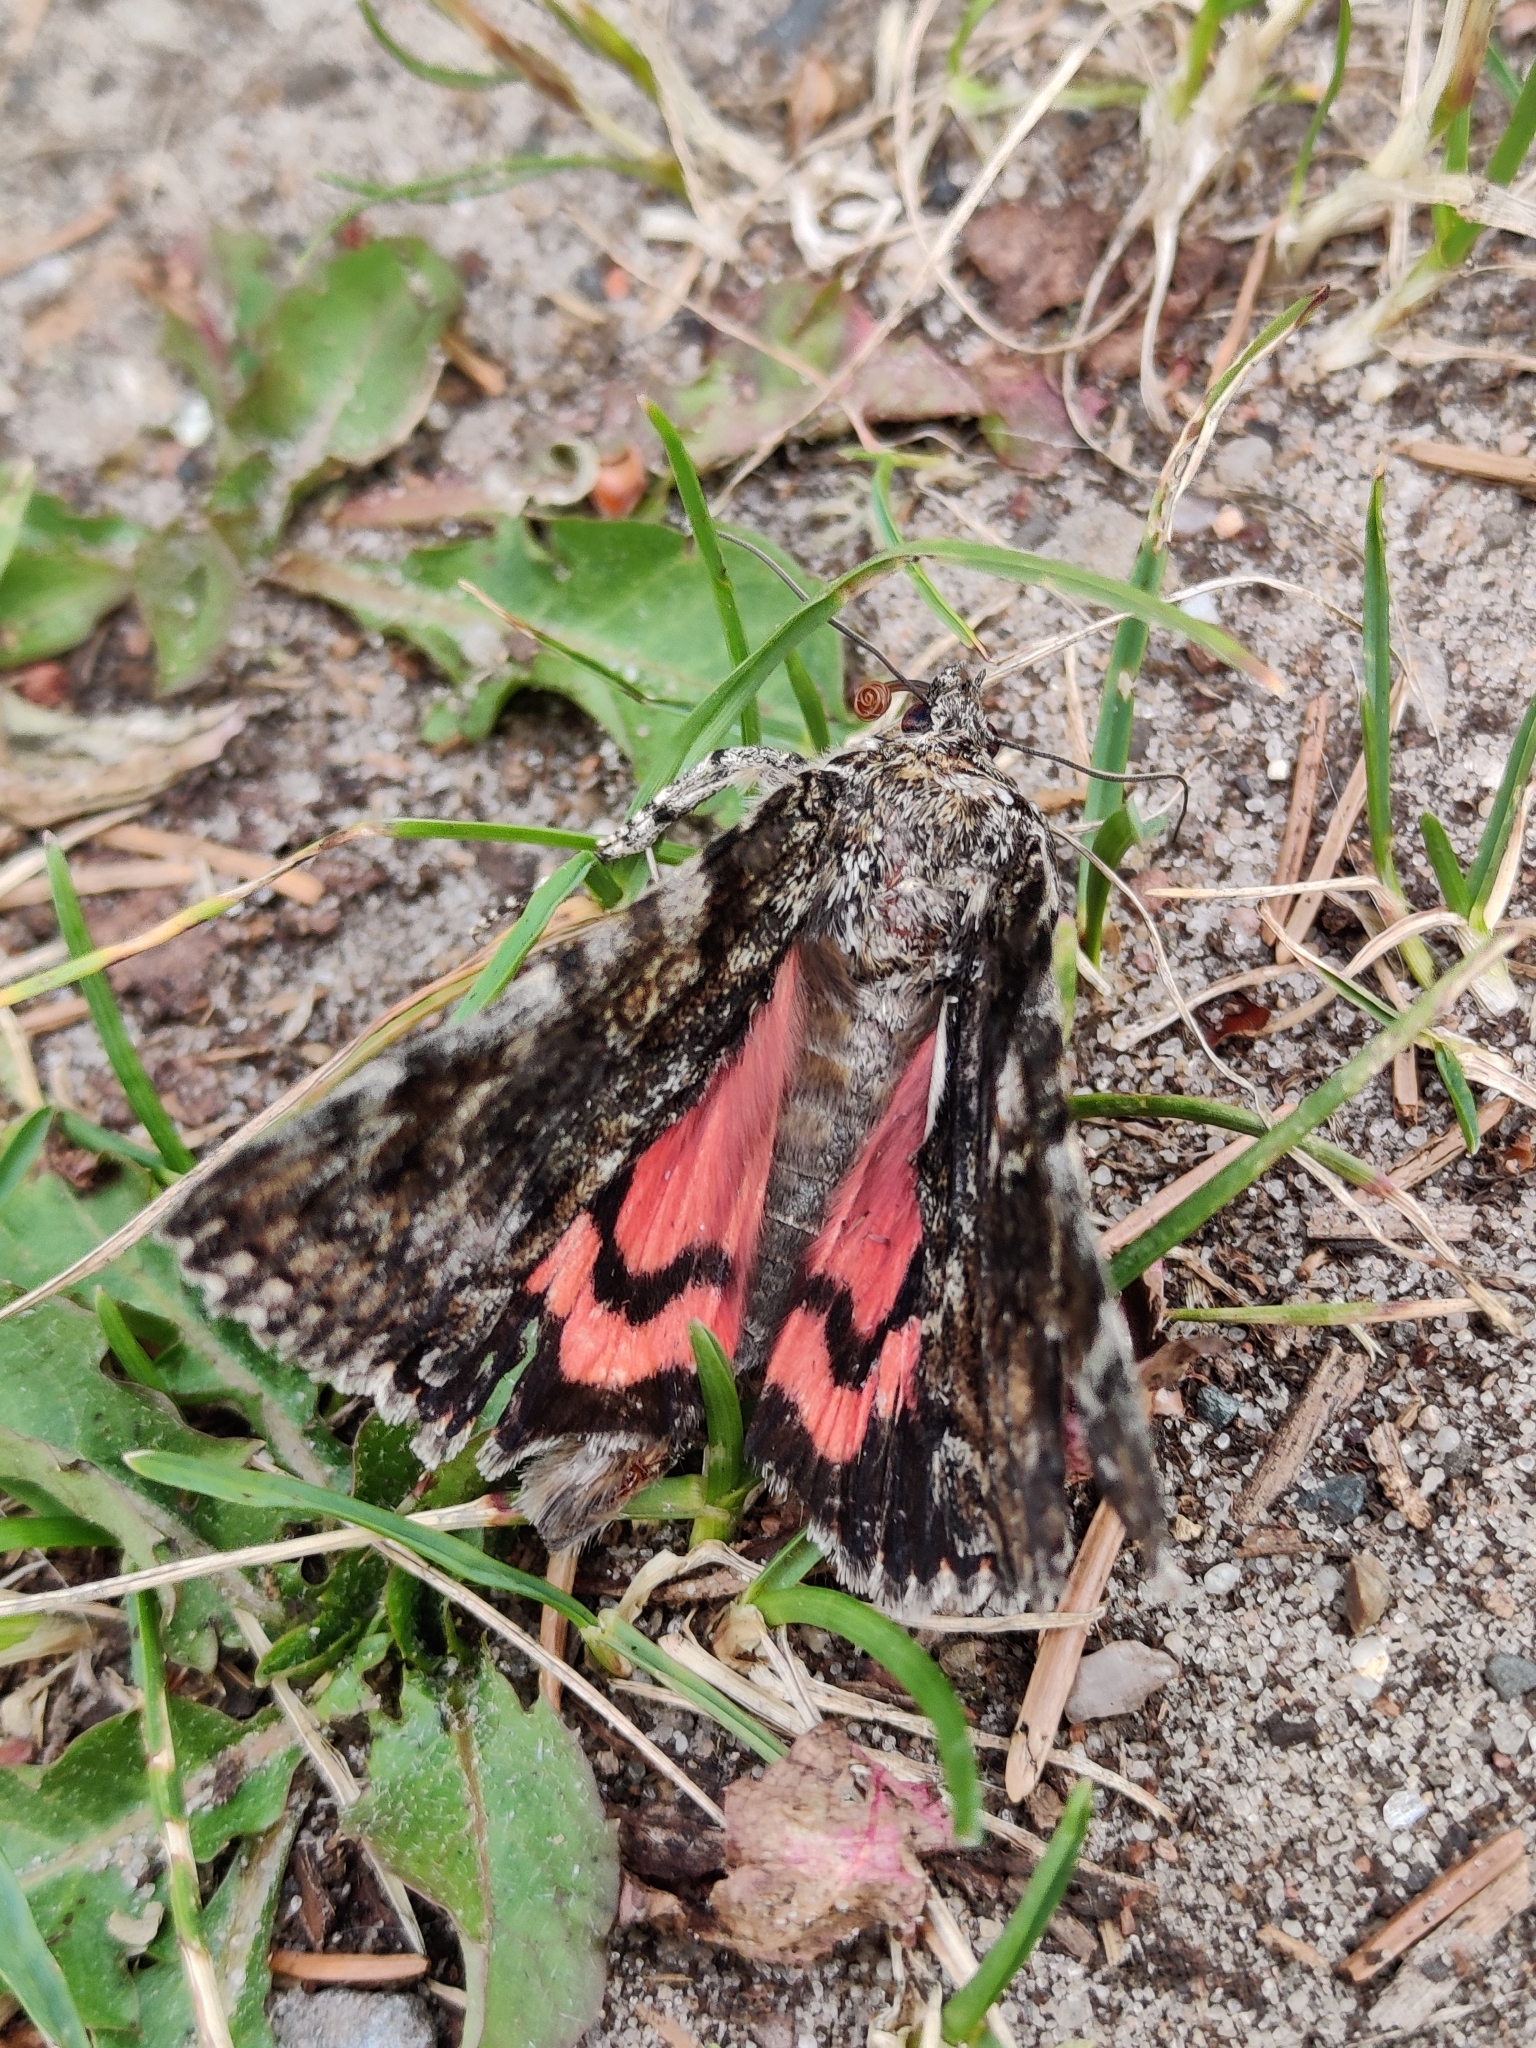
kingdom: Animalia
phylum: Arthropoda
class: Insecta
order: Lepidoptera
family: Erebidae
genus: Catocala
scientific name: Catocala sponsa
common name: Dark crimson underwing
